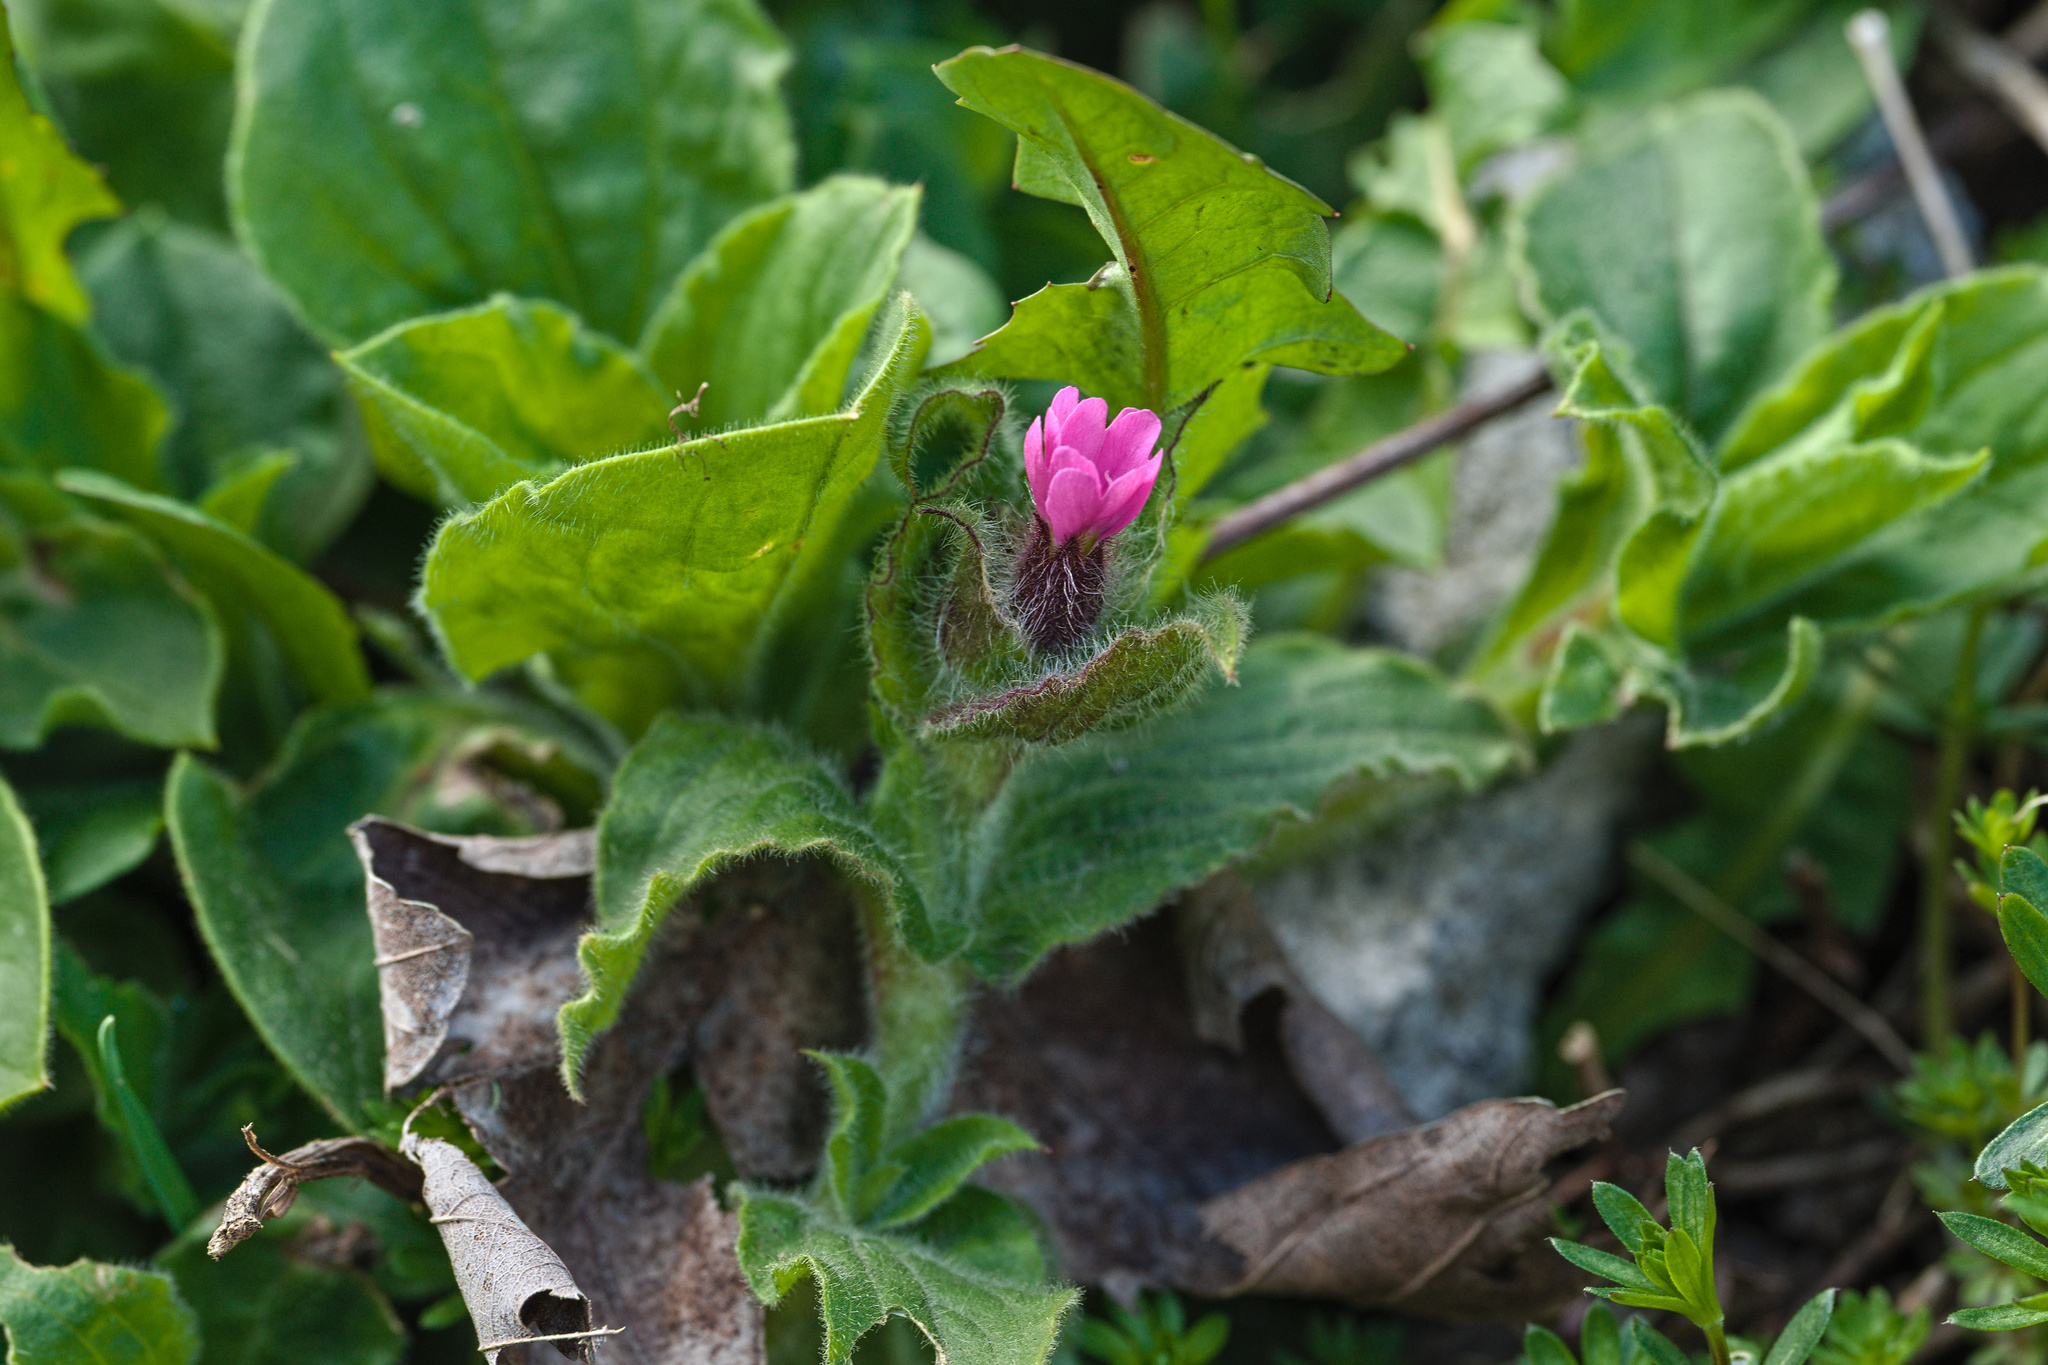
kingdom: Plantae
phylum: Tracheophyta
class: Magnoliopsida
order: Caryophyllales
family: Caryophyllaceae
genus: Silene
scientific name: Silene dioica
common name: Red campion
